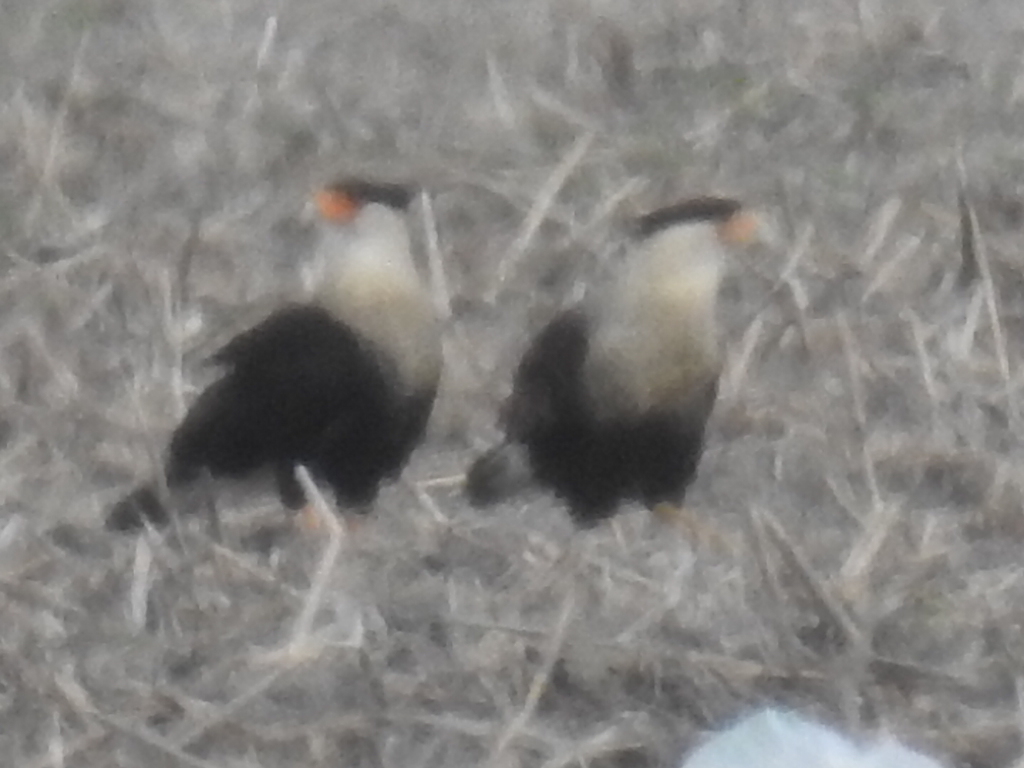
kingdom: Animalia
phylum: Chordata
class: Aves
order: Falconiformes
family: Falconidae
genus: Caracara
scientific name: Caracara plancus
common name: Southern caracara
